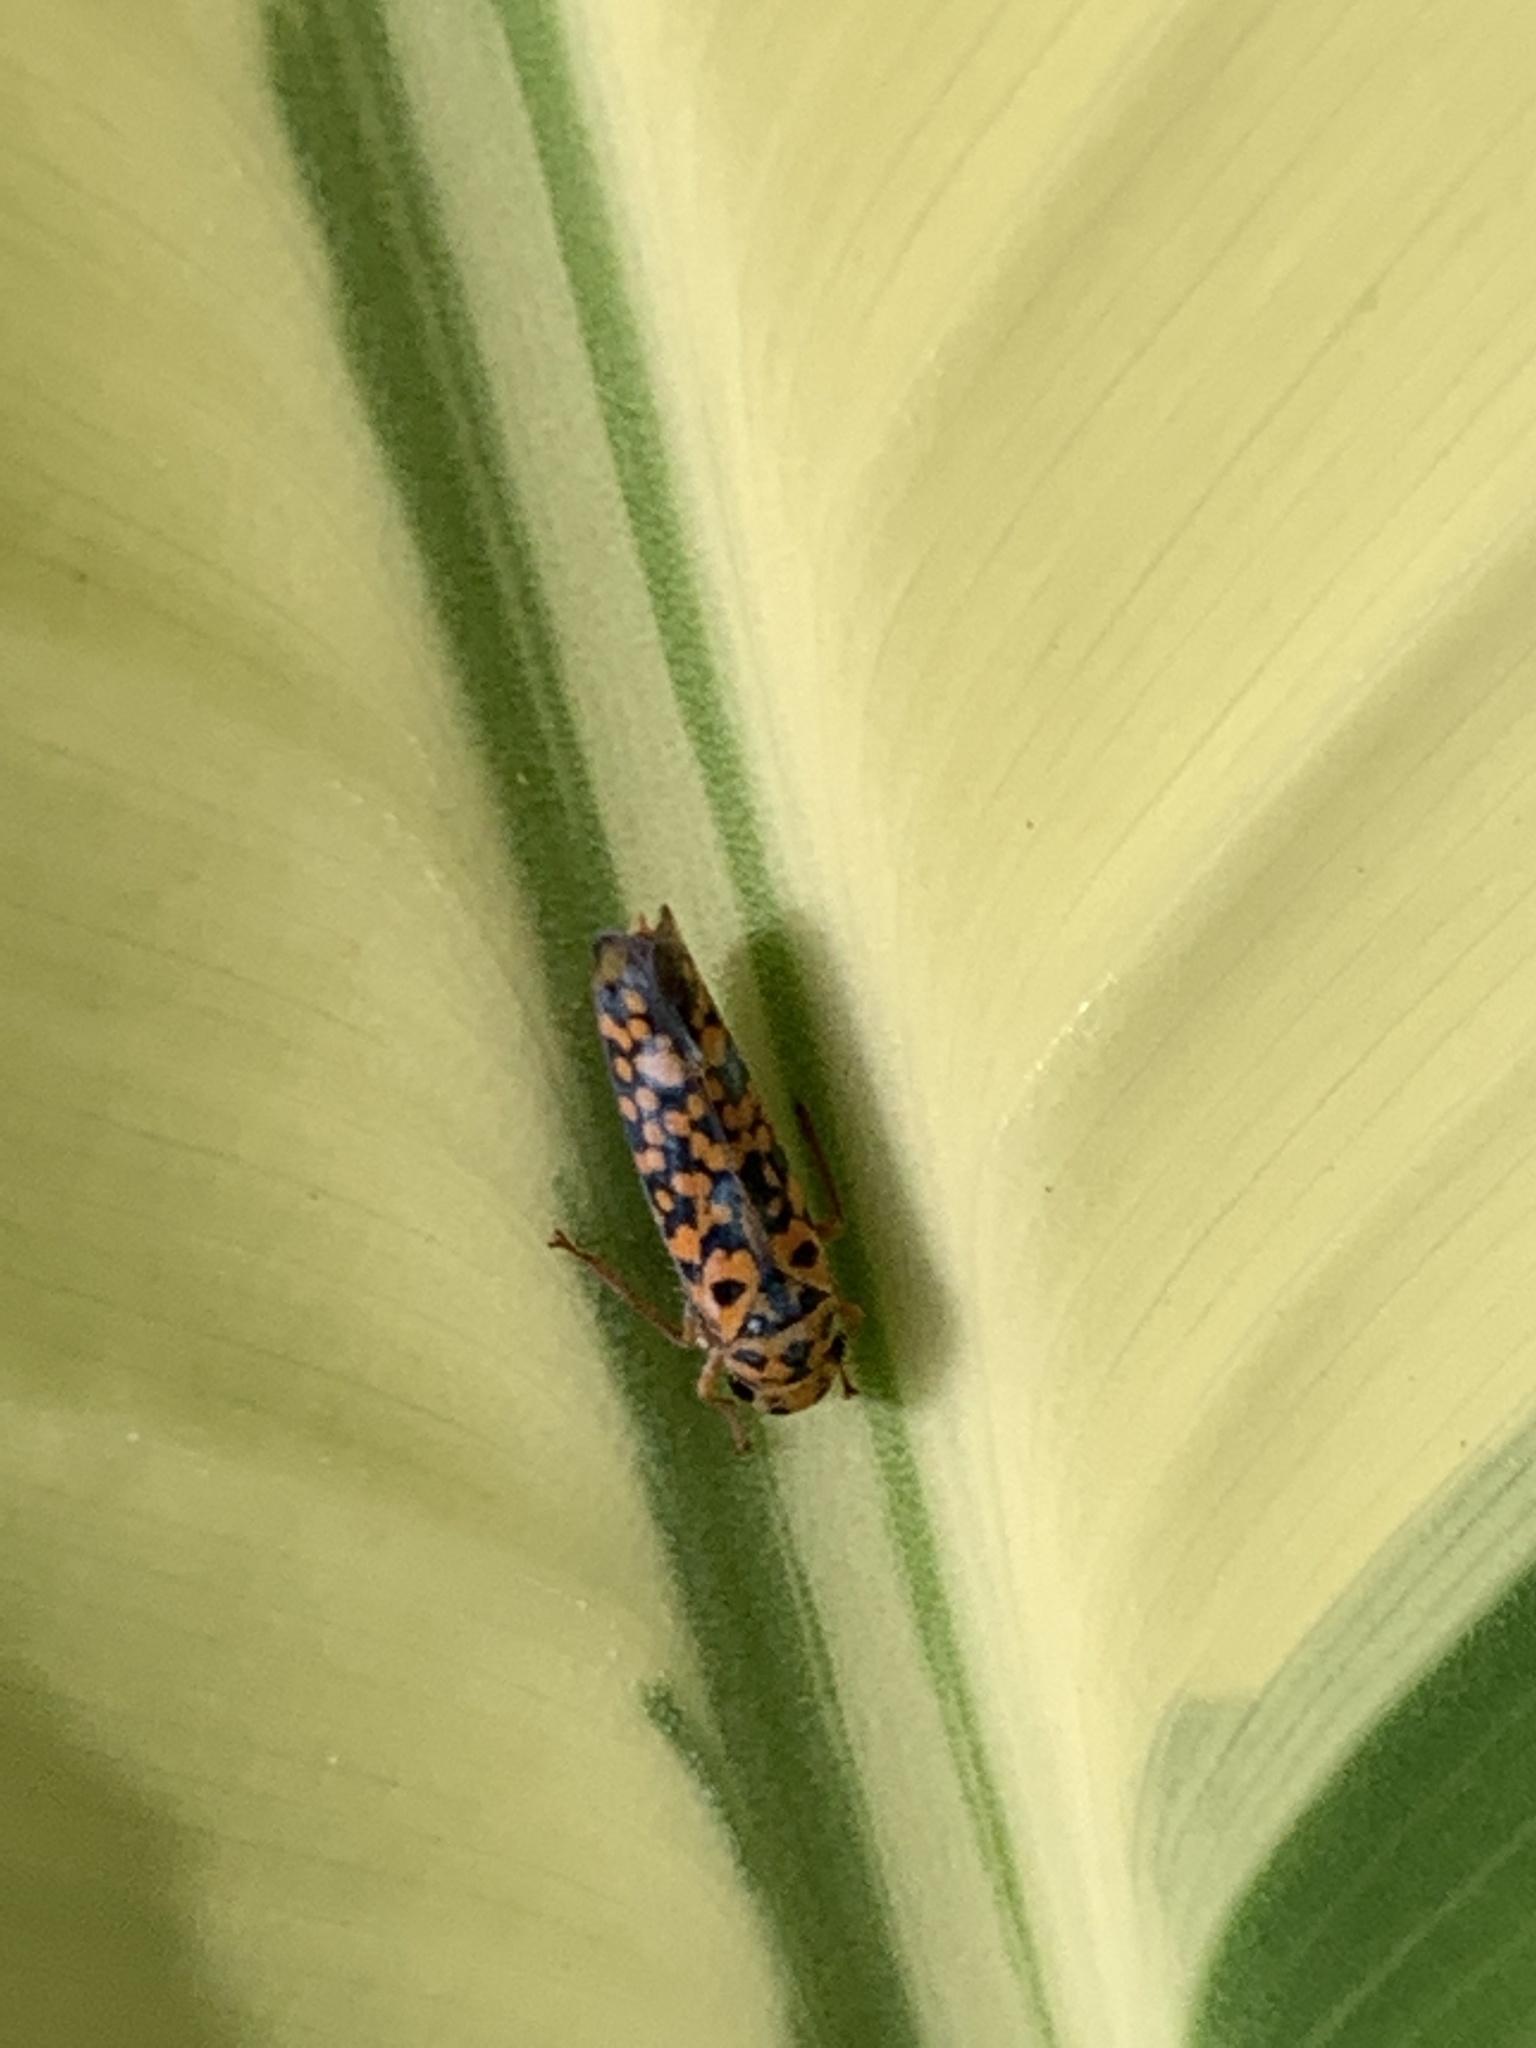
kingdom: Animalia
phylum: Arthropoda
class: Insecta
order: Hemiptera
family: Cicadellidae
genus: Pawiloma
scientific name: Pawiloma victima
